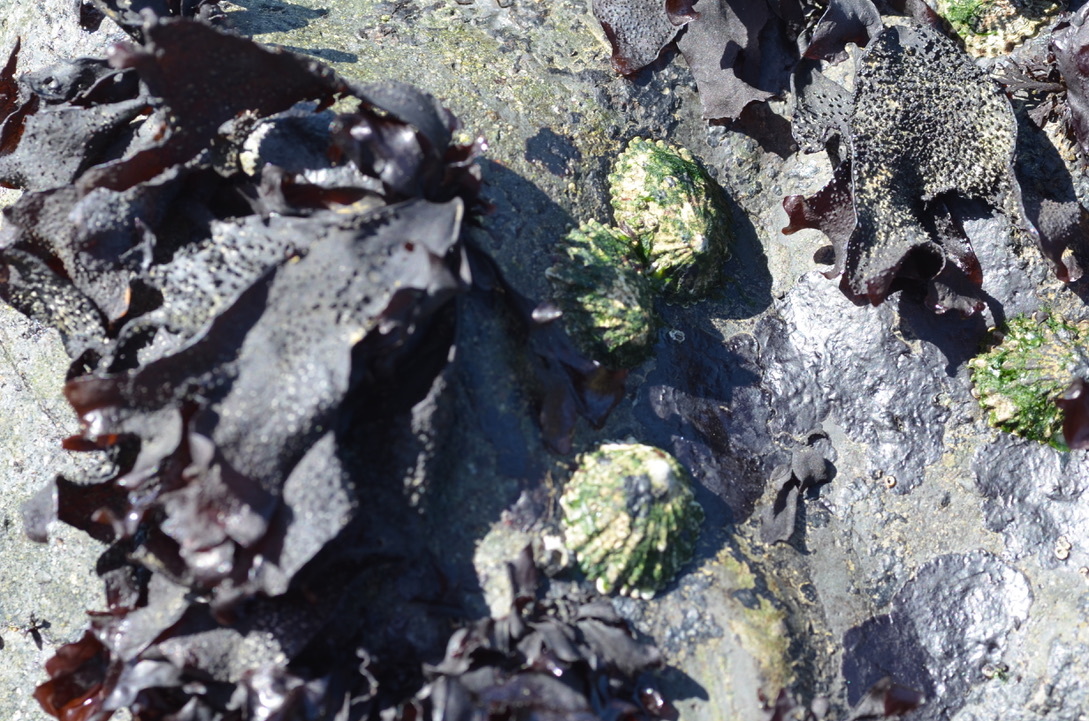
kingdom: Animalia
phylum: Mollusca
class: Gastropoda
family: Lottiidae
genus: Lottia
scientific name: Lottia scabra
